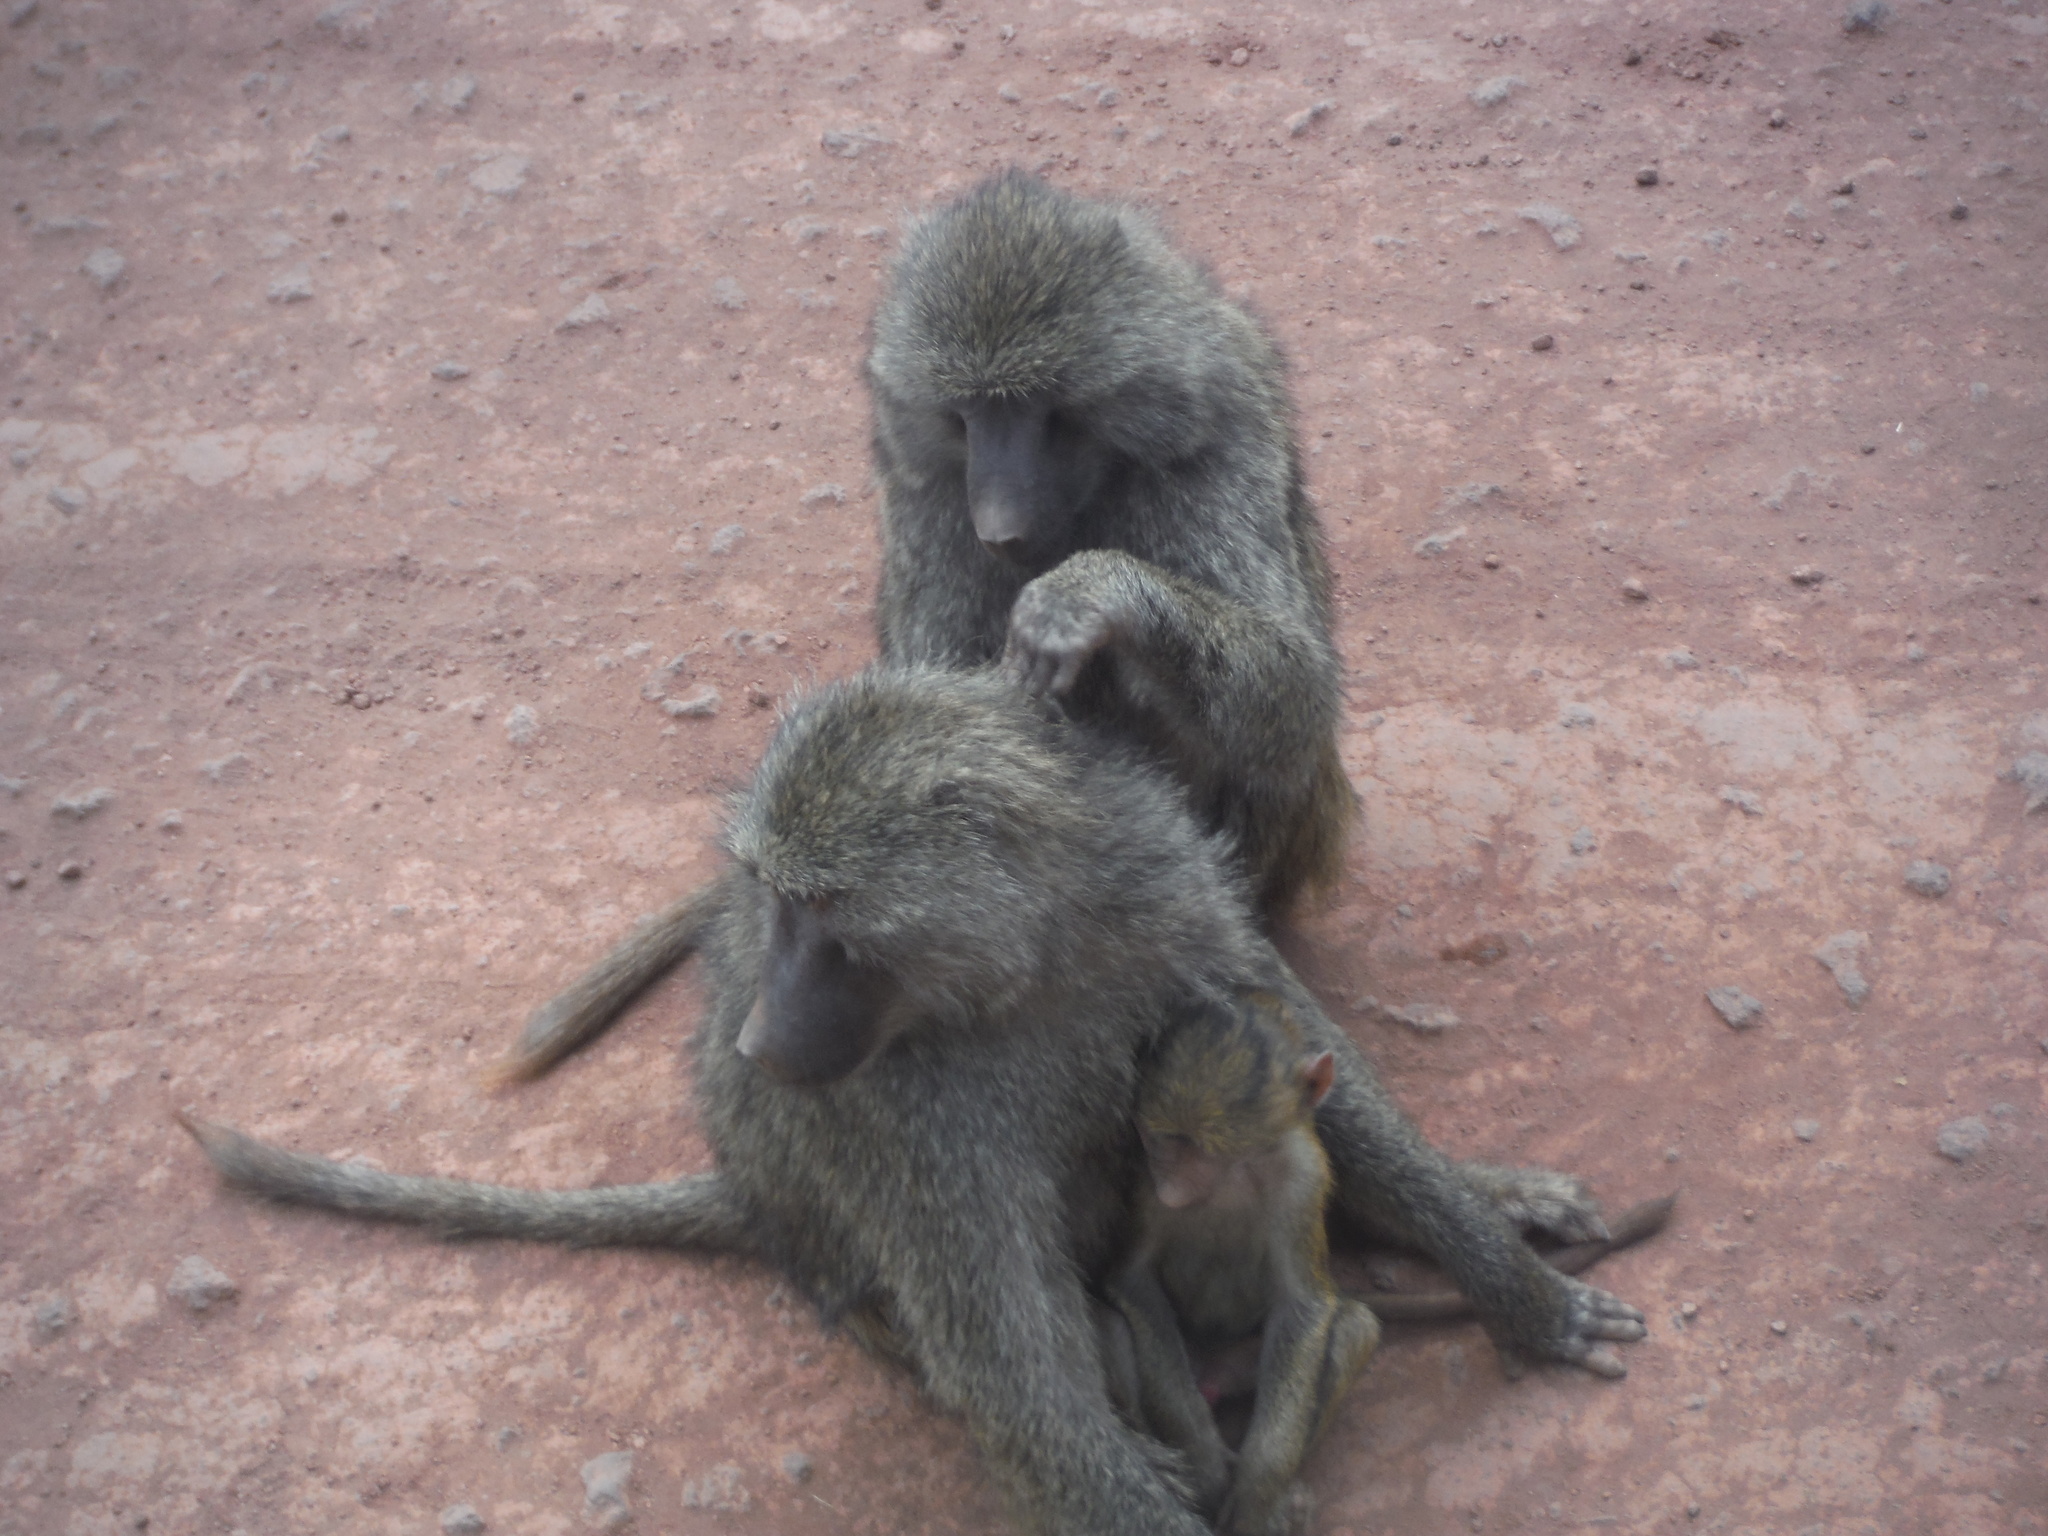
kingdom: Animalia
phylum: Chordata
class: Mammalia
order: Primates
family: Cercopithecidae
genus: Papio
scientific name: Papio anubis
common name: Olive baboon
